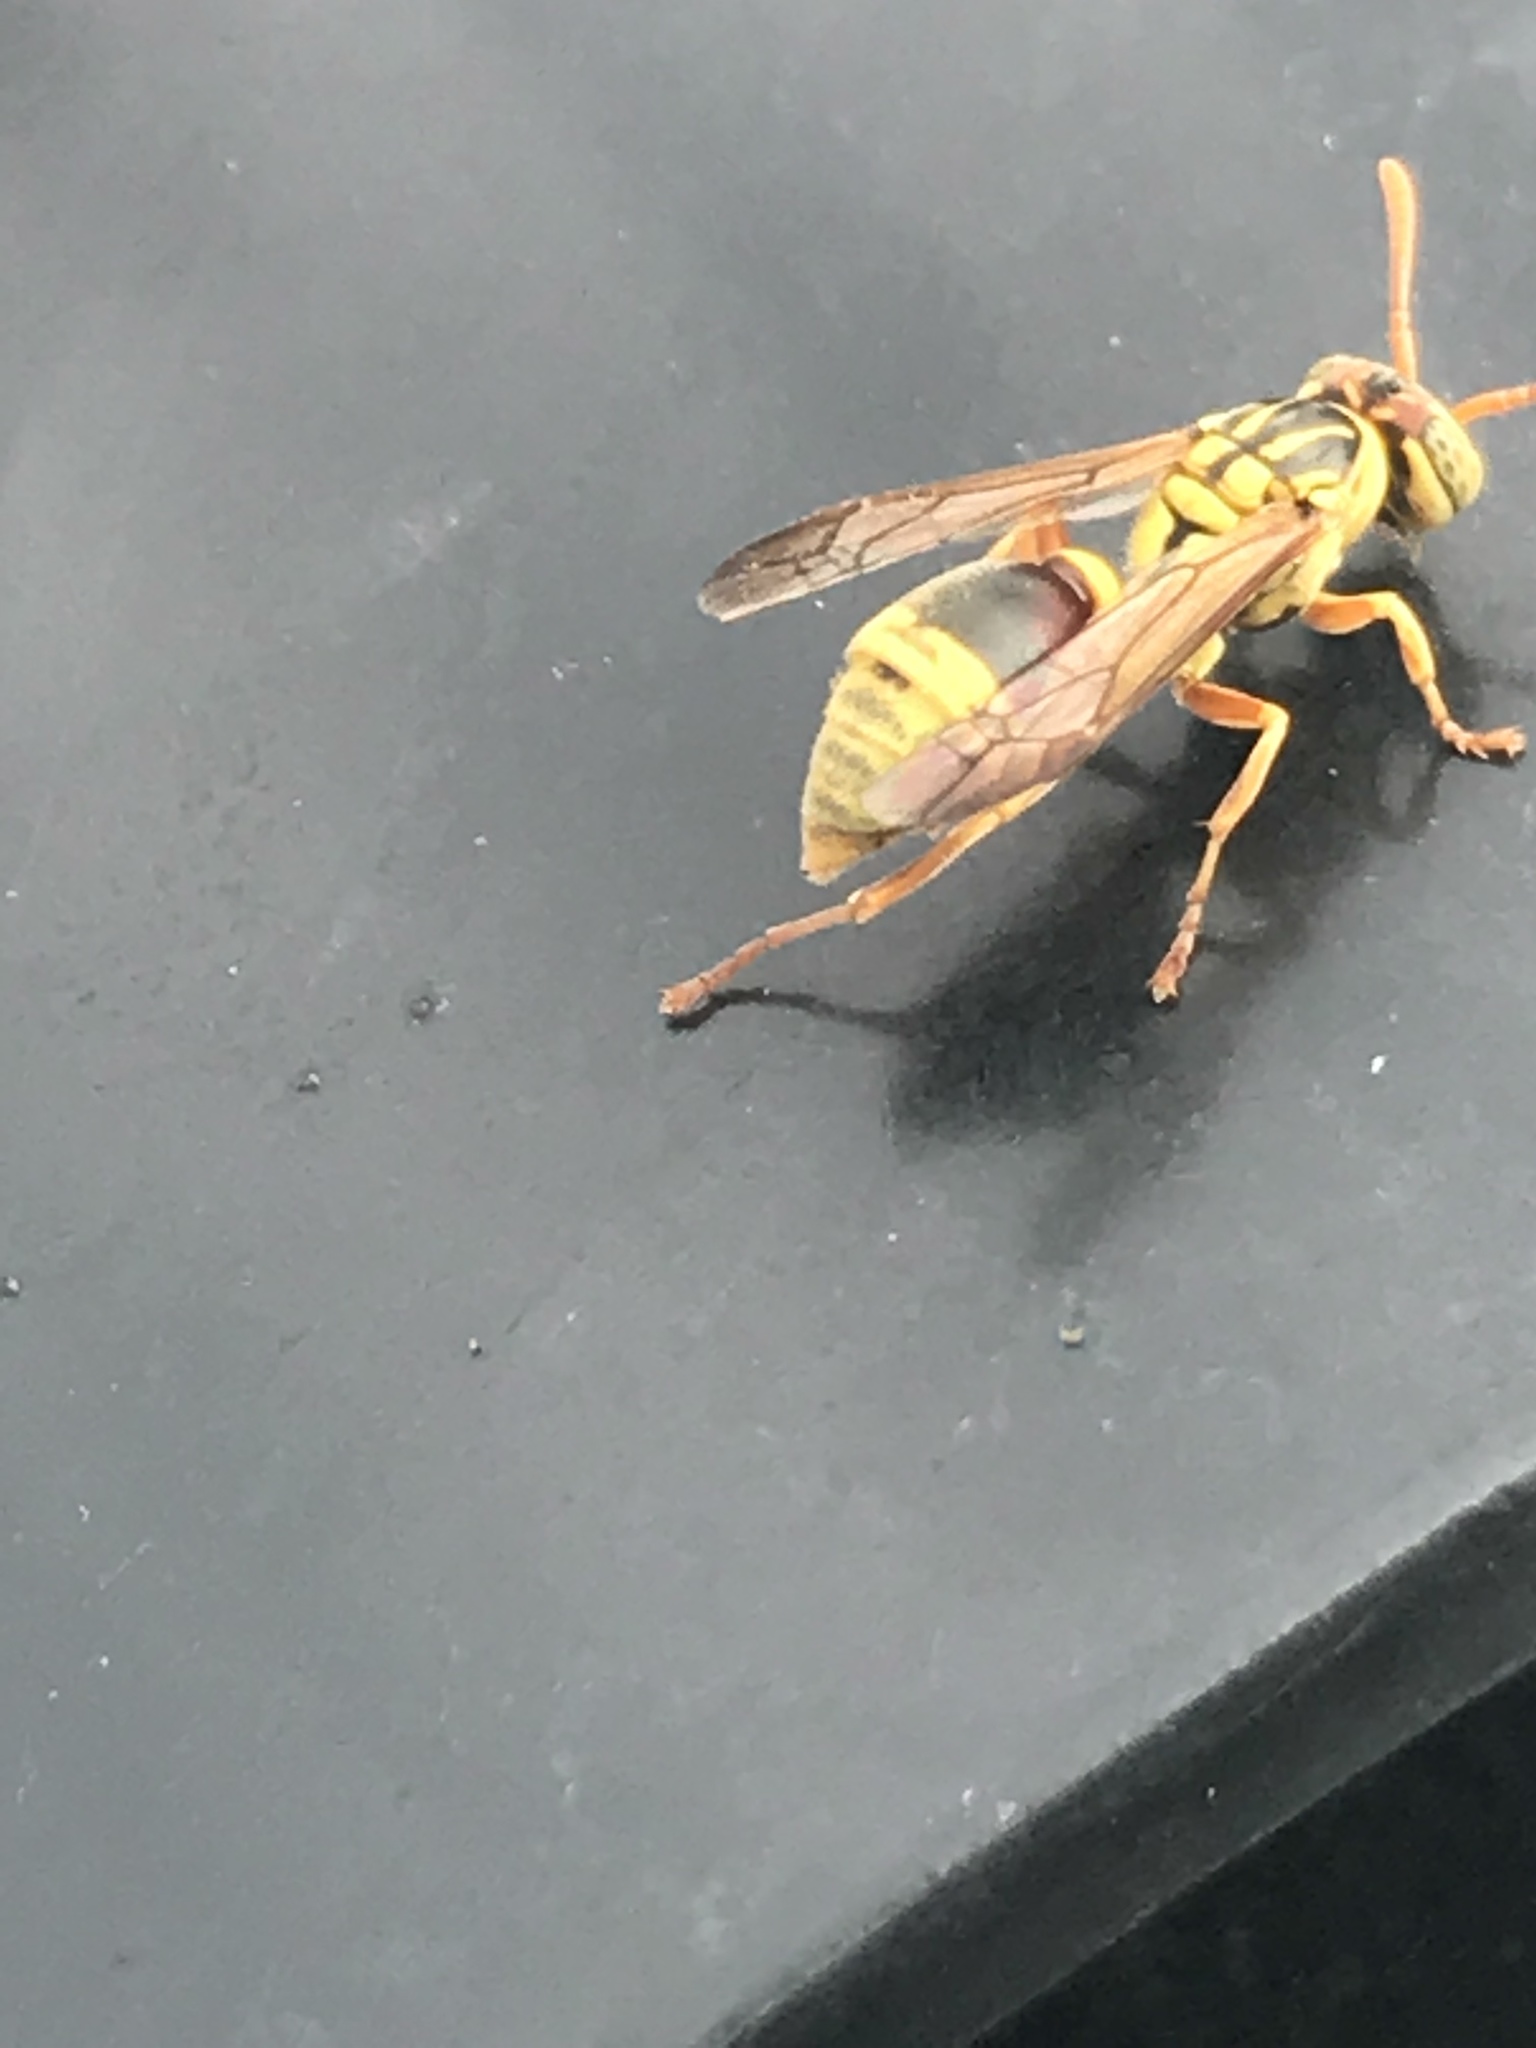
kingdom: Animalia
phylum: Arthropoda
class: Insecta
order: Hymenoptera
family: Vespidae
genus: Ropalidia
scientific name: Ropalidia romandi
